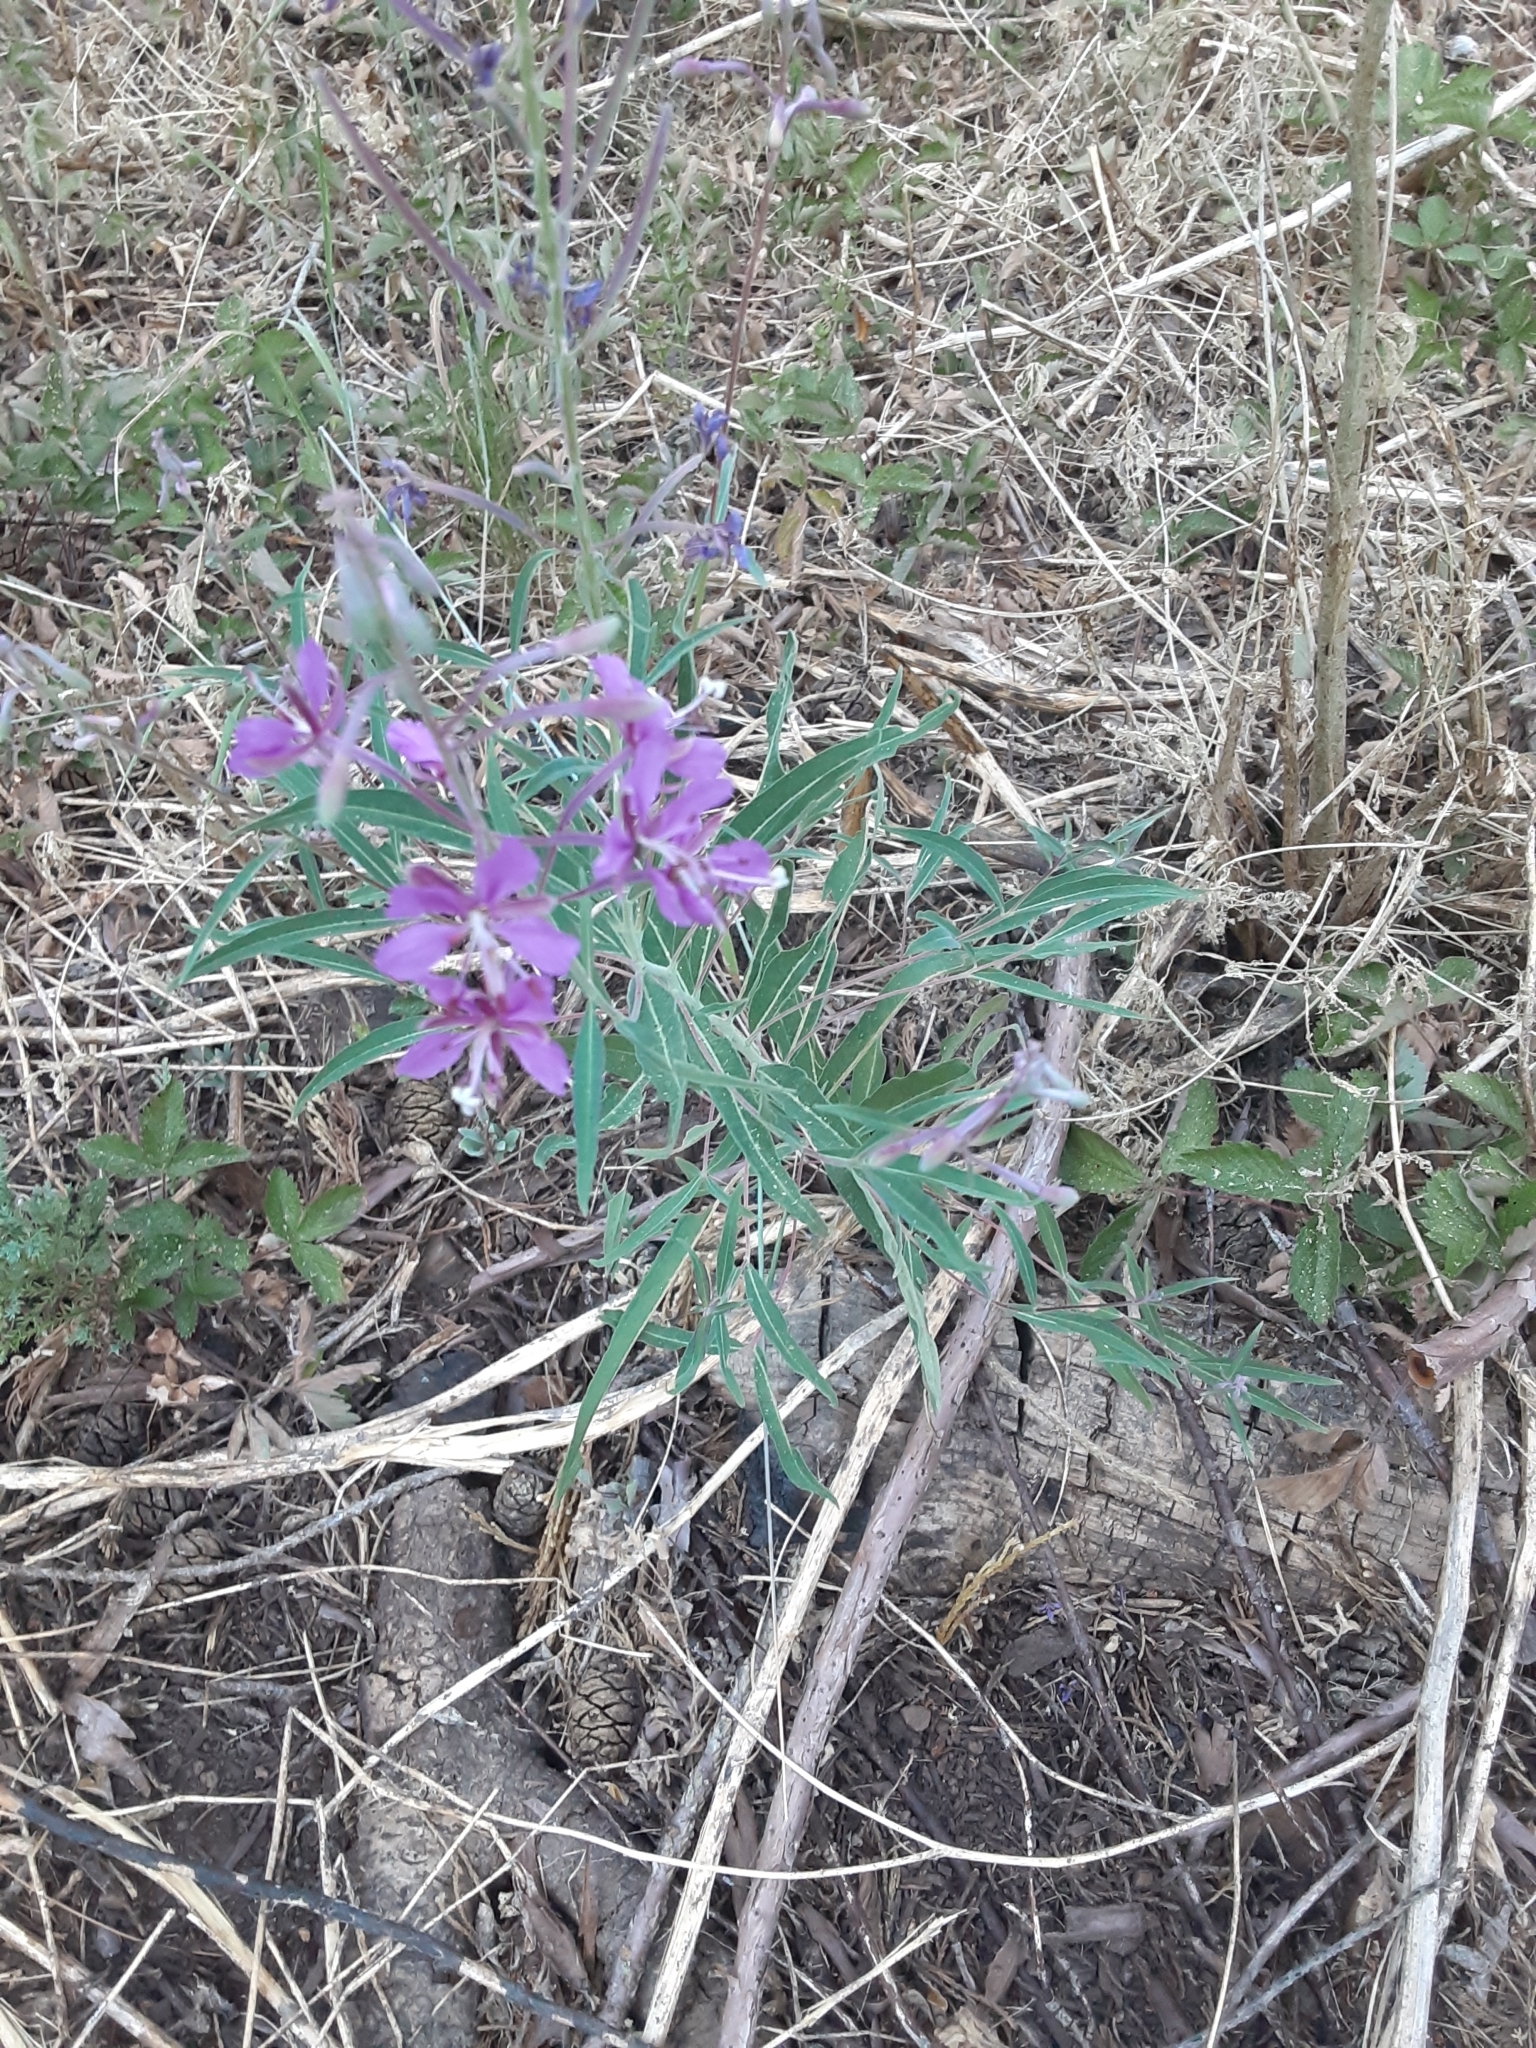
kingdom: Plantae
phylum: Tracheophyta
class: Magnoliopsida
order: Myrtales
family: Onagraceae
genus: Chamaenerion
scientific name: Chamaenerion angustifolium
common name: Fireweed
